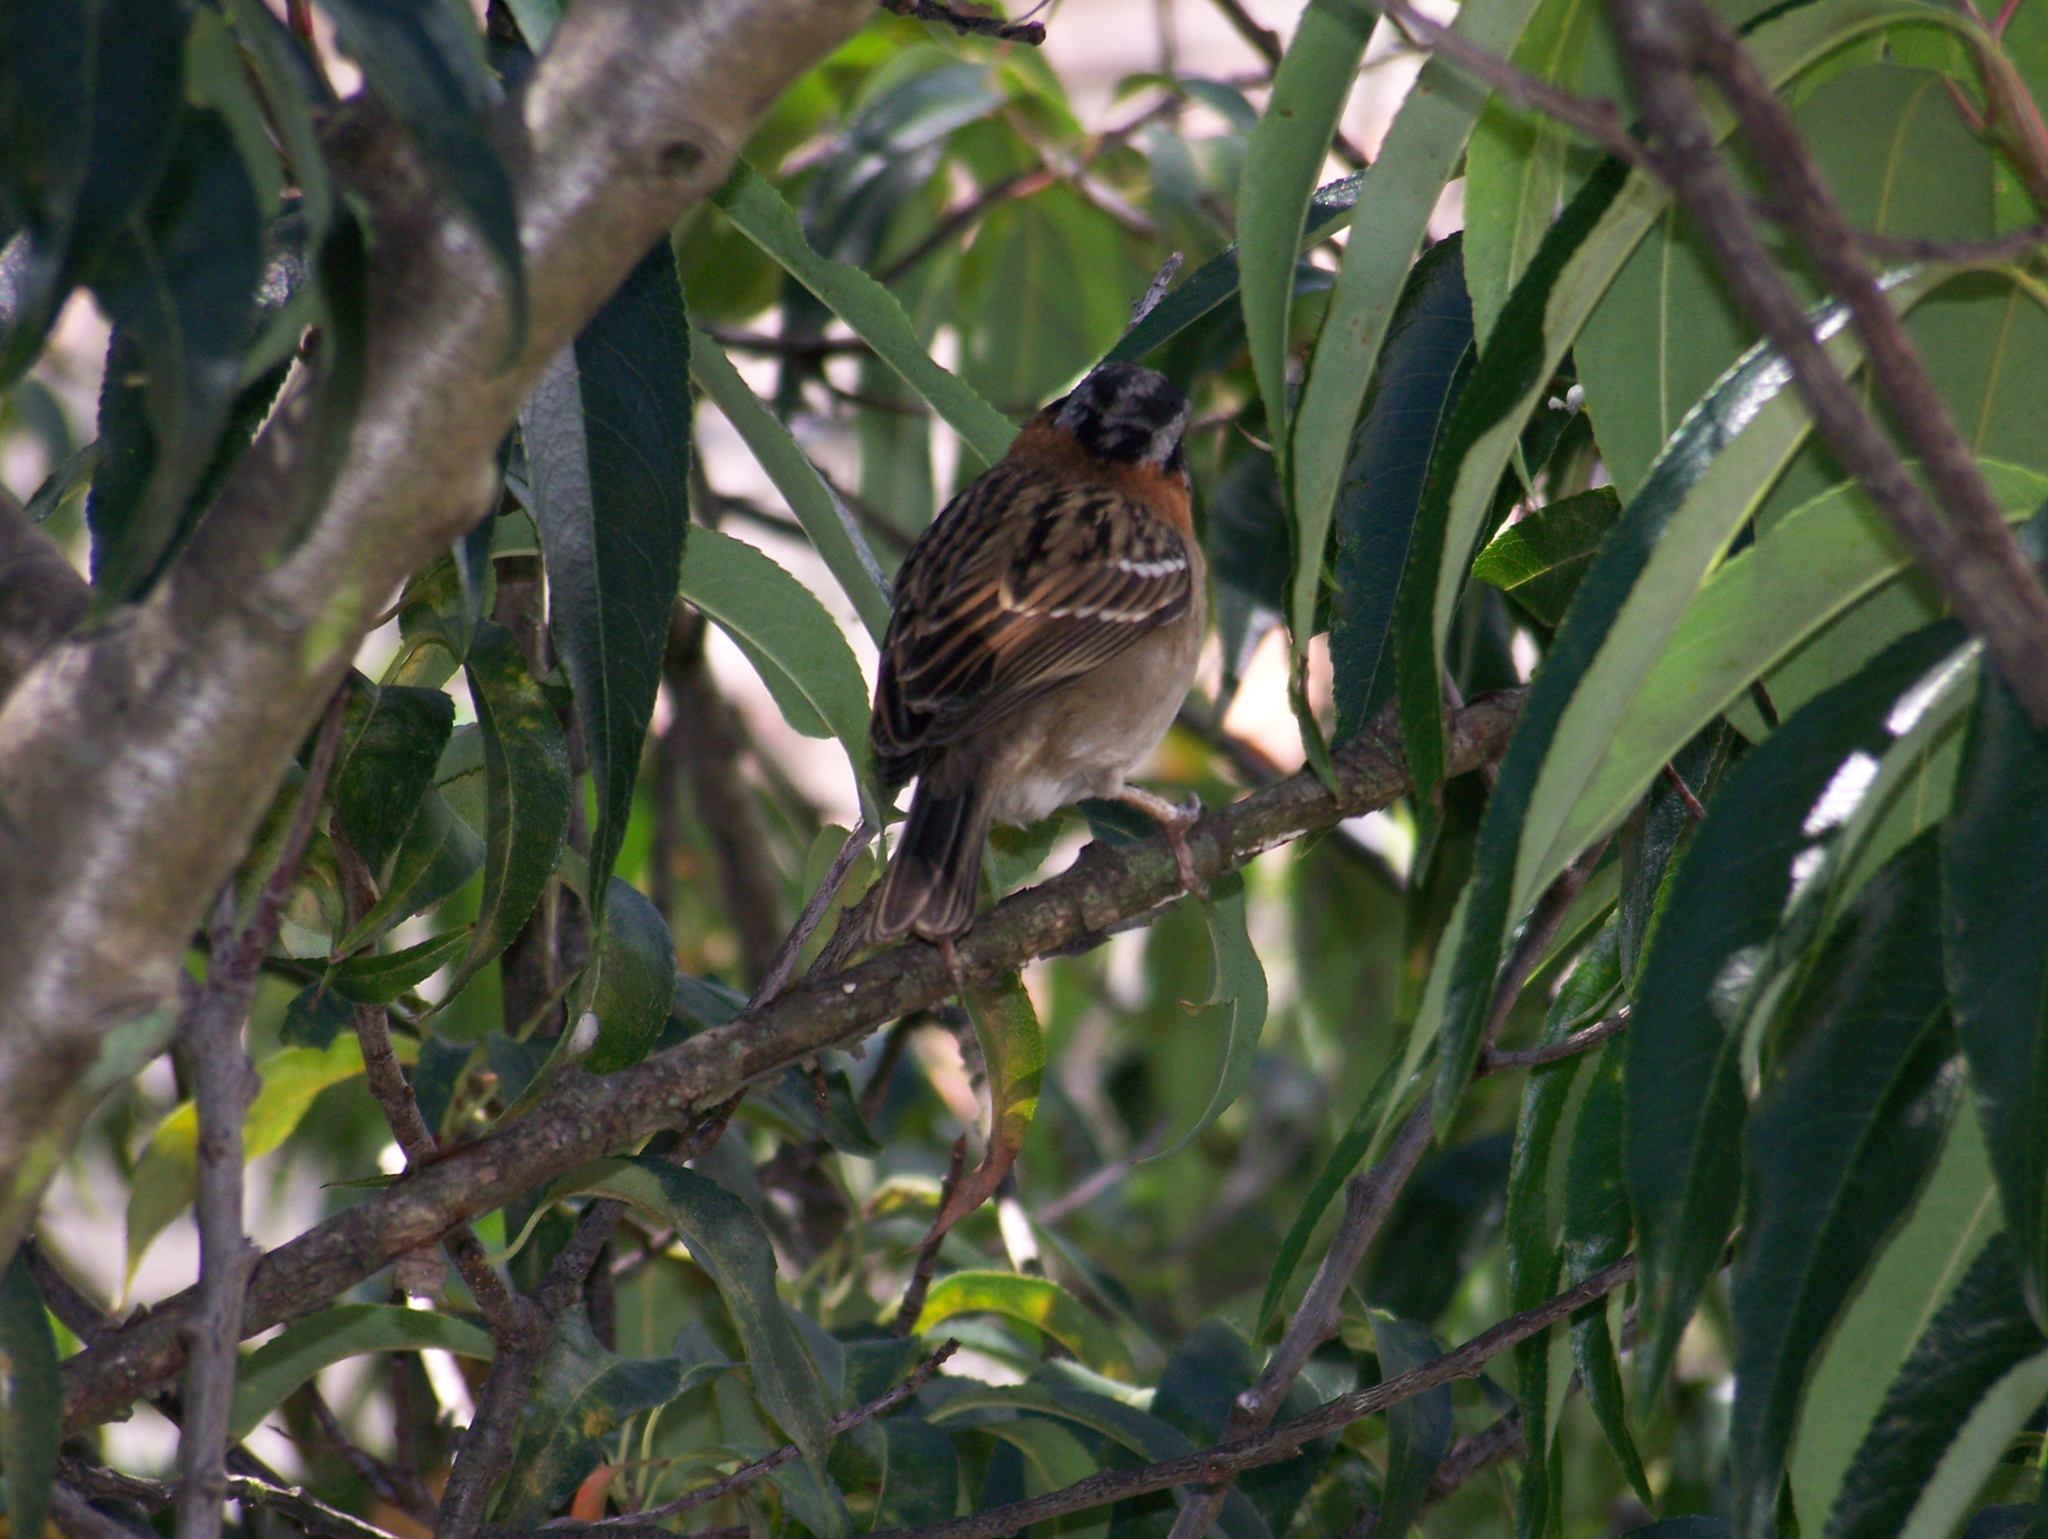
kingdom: Animalia
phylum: Chordata
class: Aves
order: Passeriformes
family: Passerellidae
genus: Zonotrichia
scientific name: Zonotrichia capensis
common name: Rufous-collared sparrow
